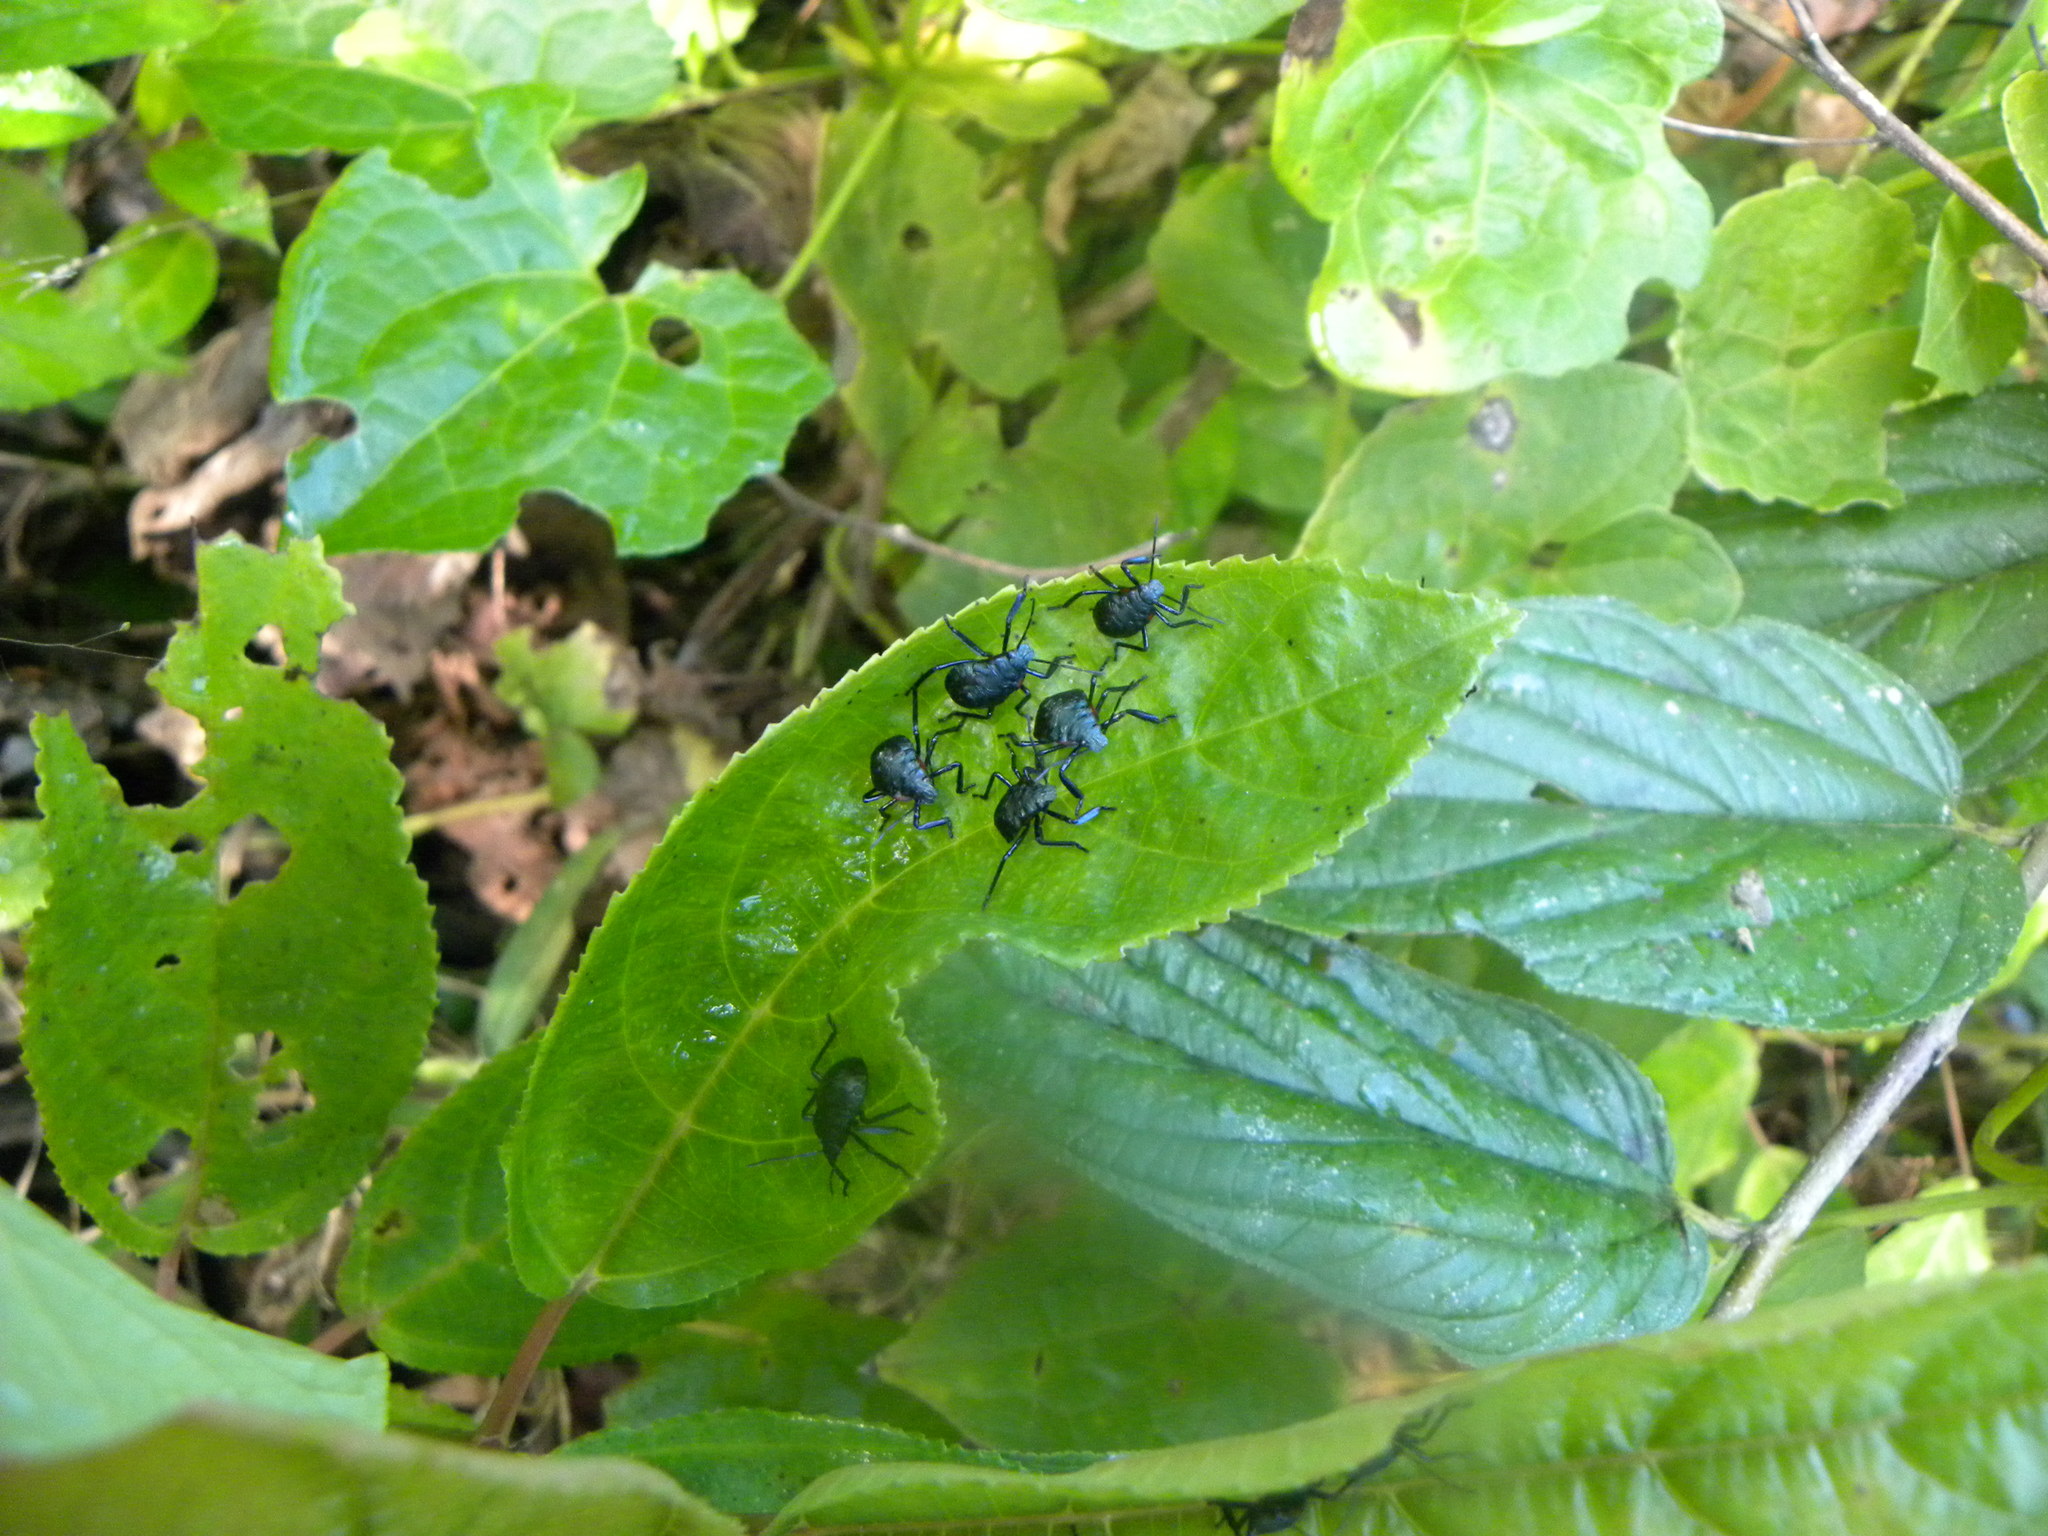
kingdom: Animalia
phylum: Arthropoda
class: Insecta
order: Hemiptera
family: Pentatomidae
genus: Alcaeorrhynchus
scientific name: Alcaeorrhynchus grandis
